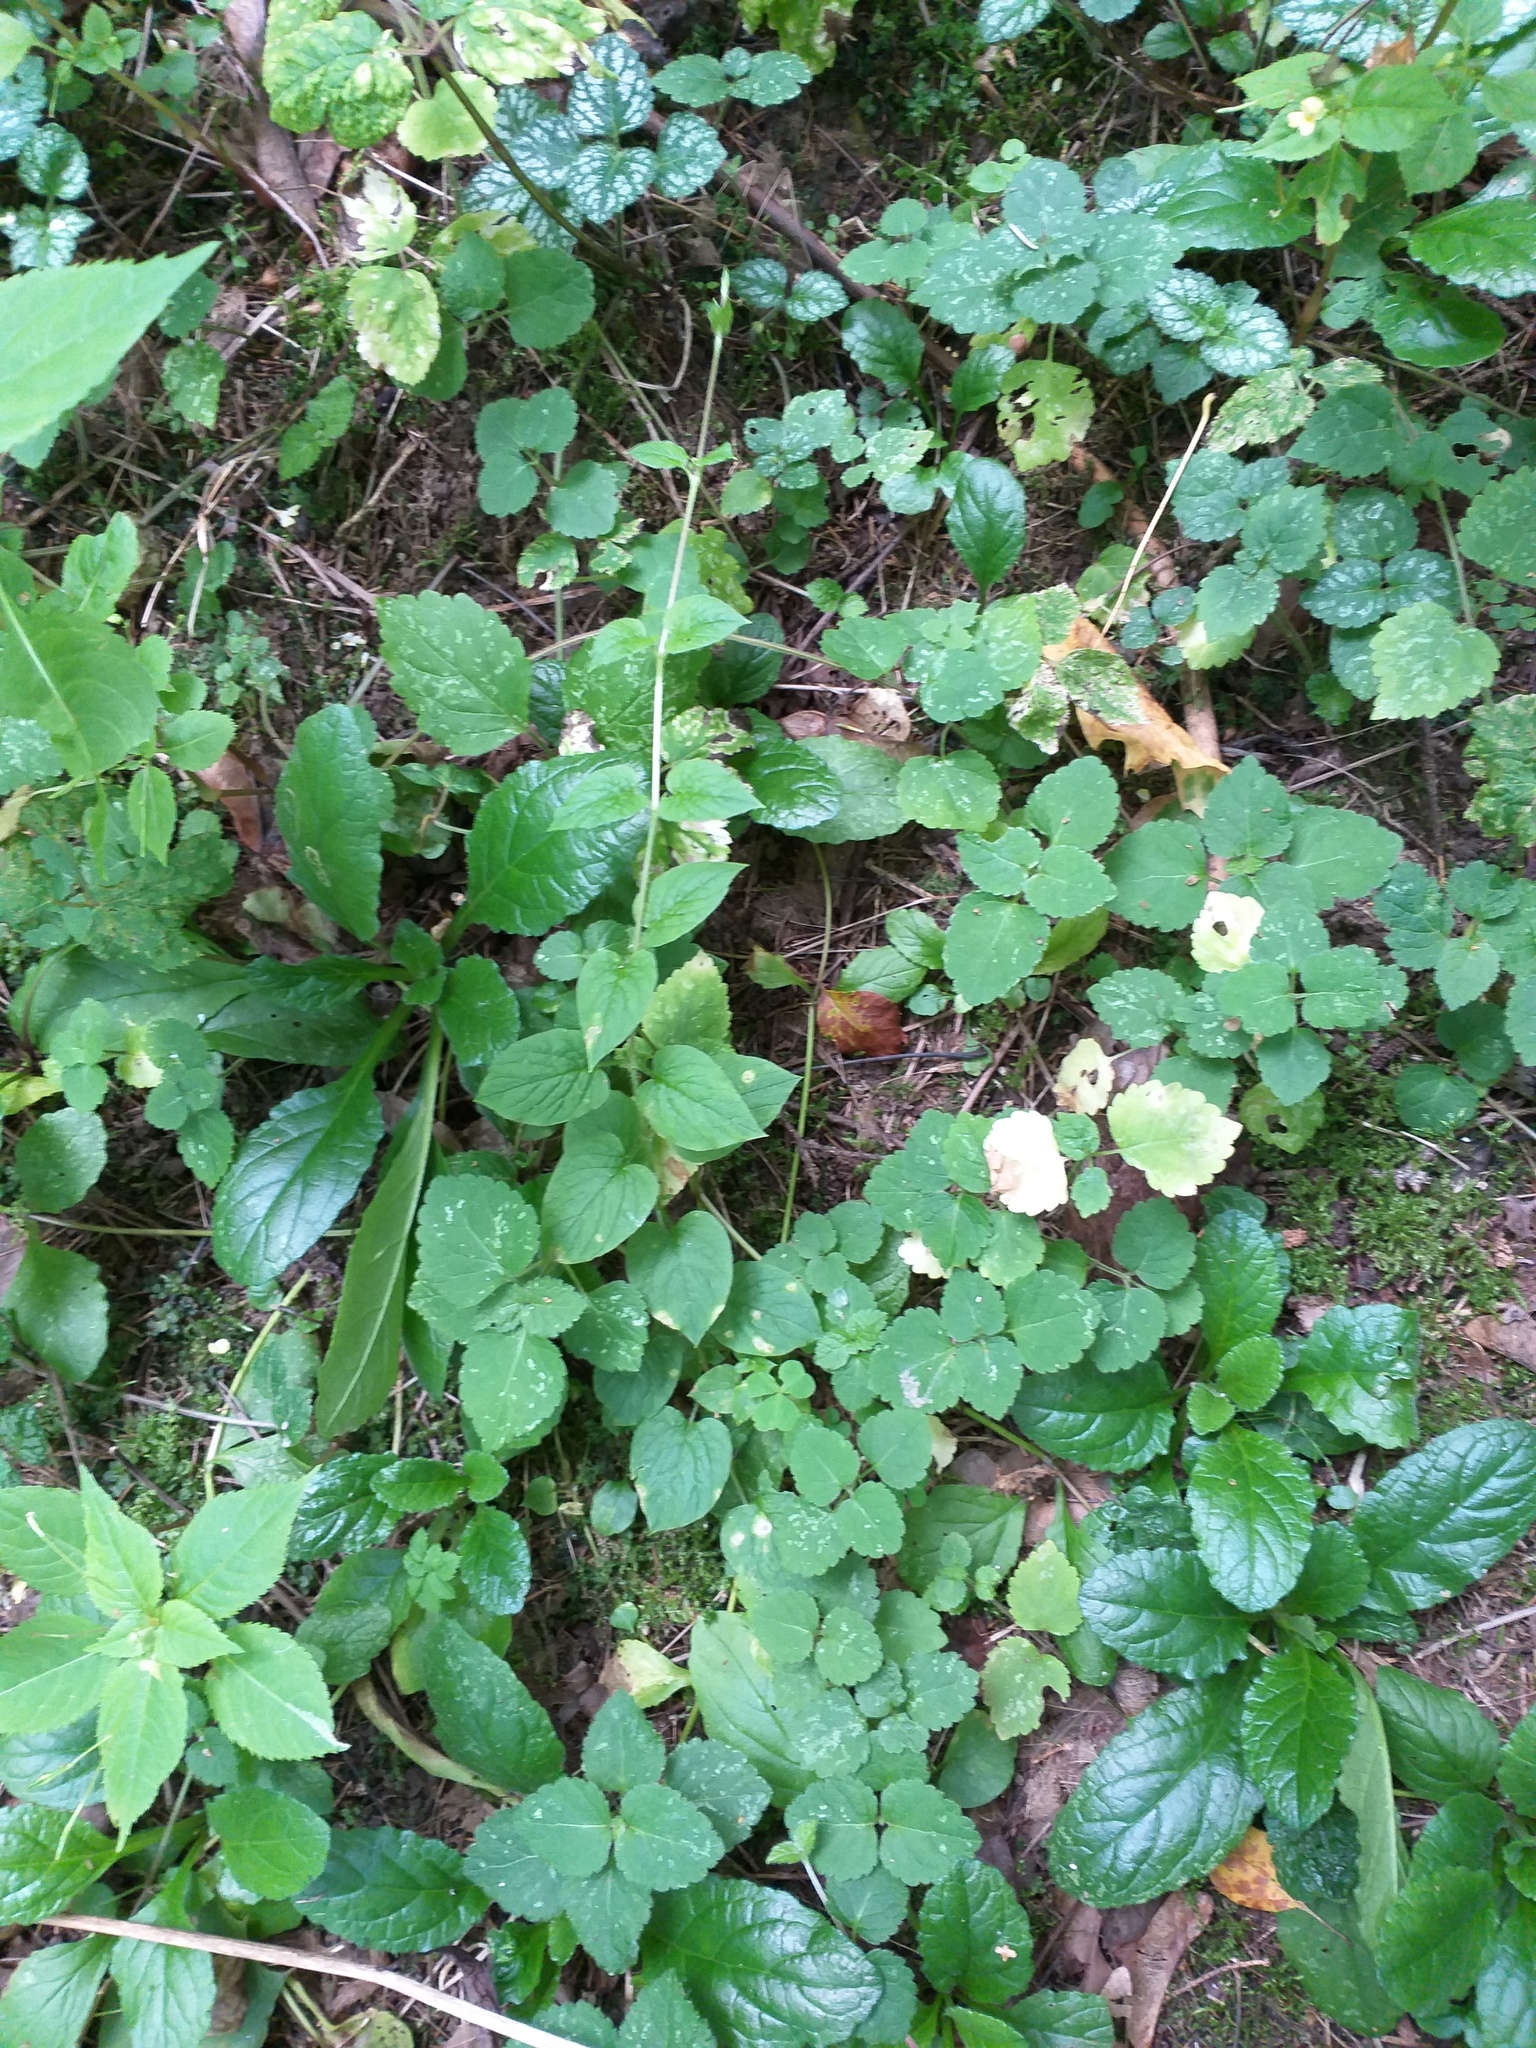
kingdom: Plantae
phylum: Tracheophyta
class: Magnoliopsida
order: Caryophyllales
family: Caryophyllaceae
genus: Stellaria
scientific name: Stellaria nemorum
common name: Wood stitchwort
